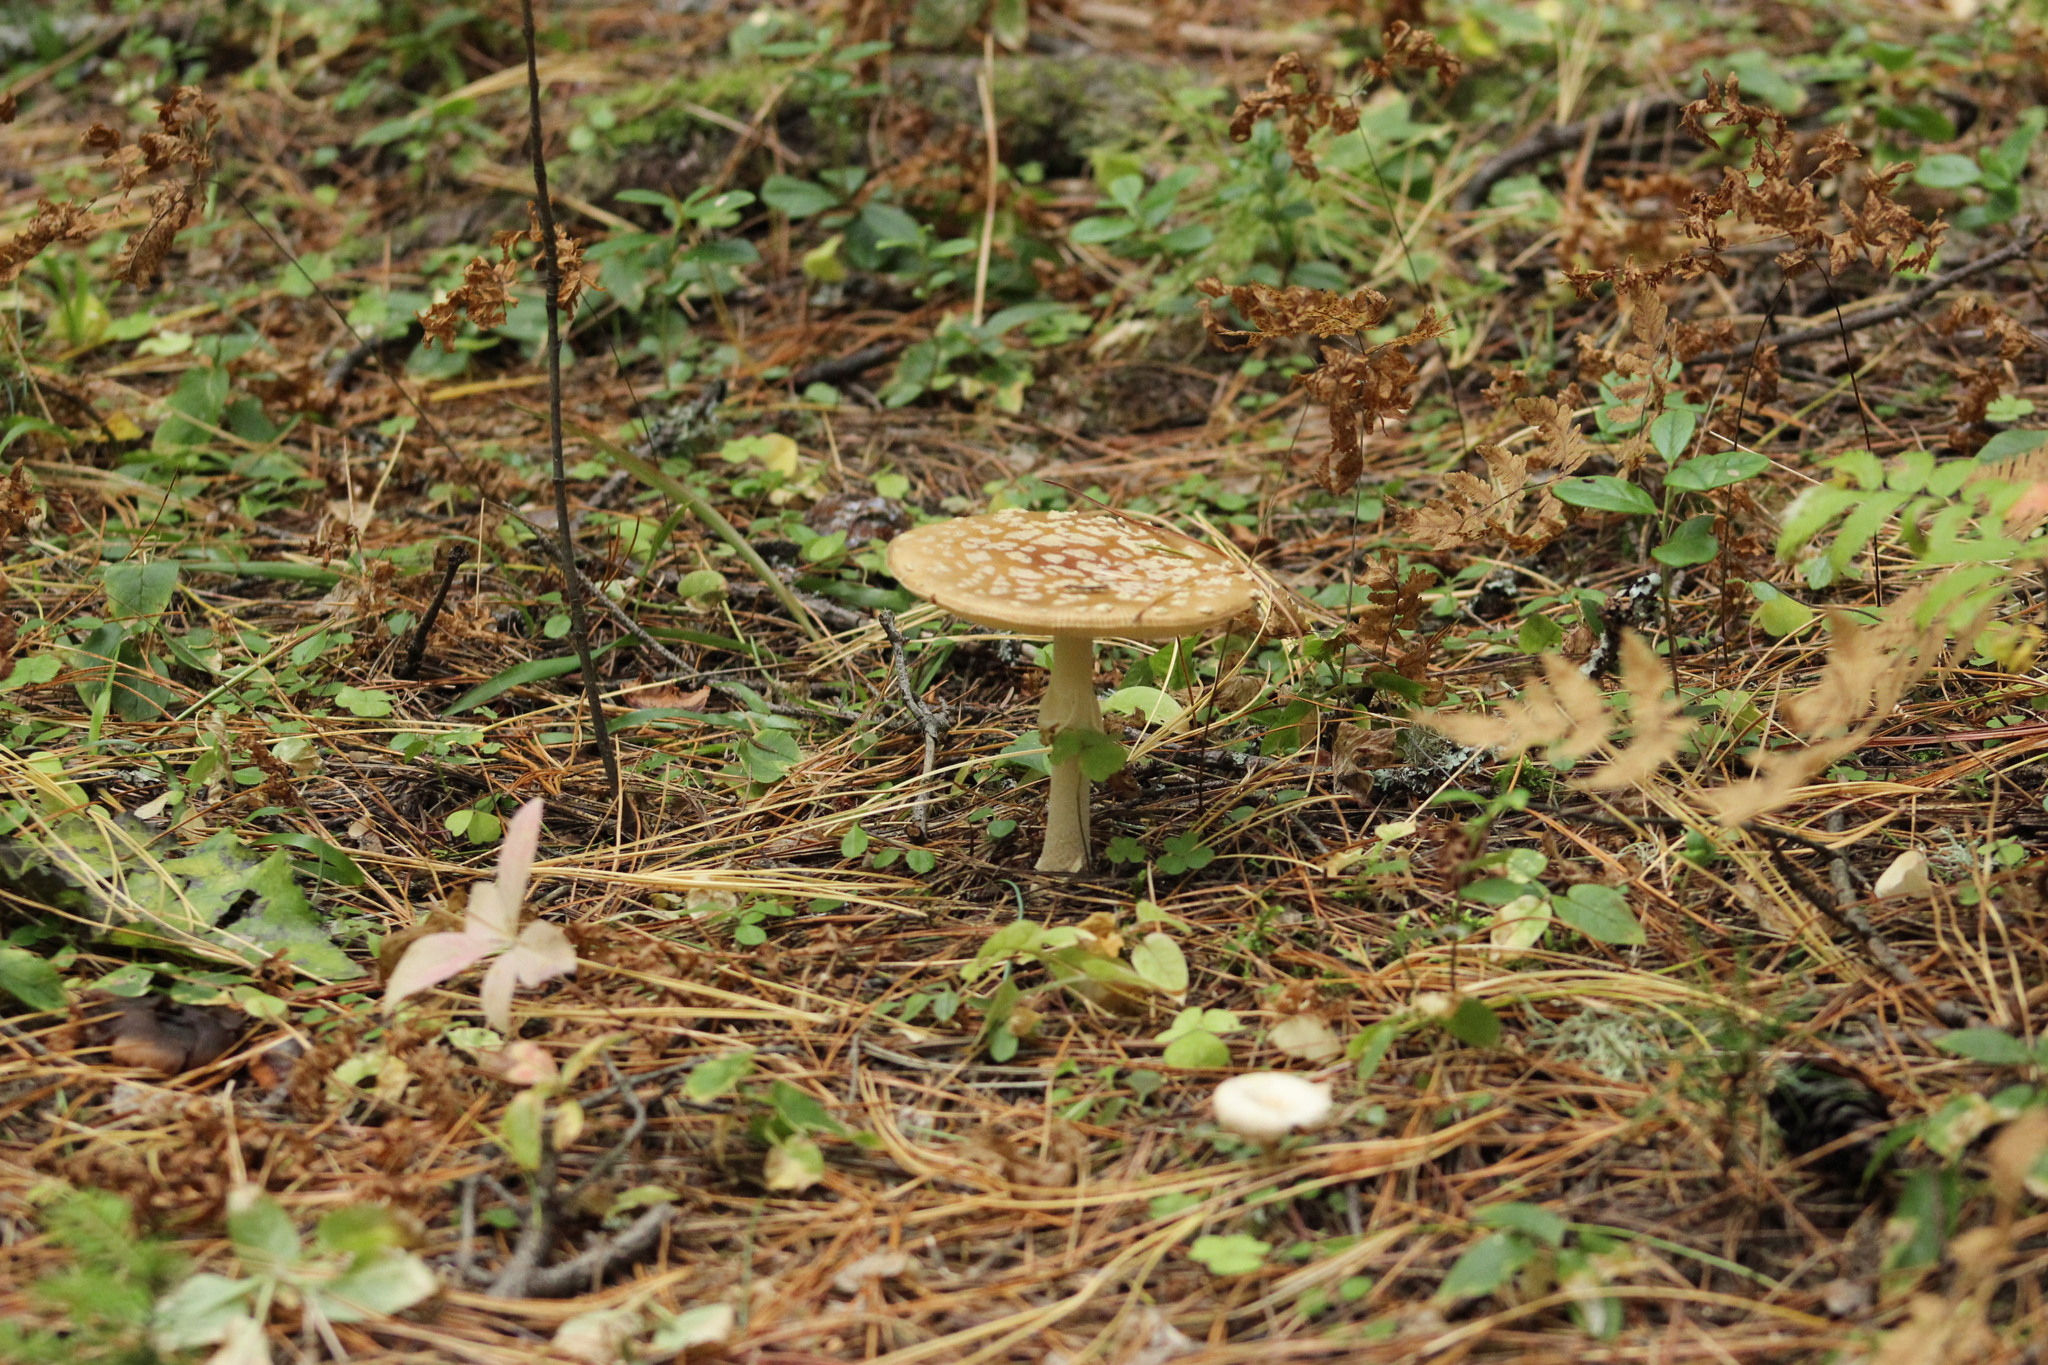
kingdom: Fungi
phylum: Basidiomycota
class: Agaricomycetes
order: Agaricales
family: Amanitaceae
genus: Amanita
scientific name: Amanita regalis
